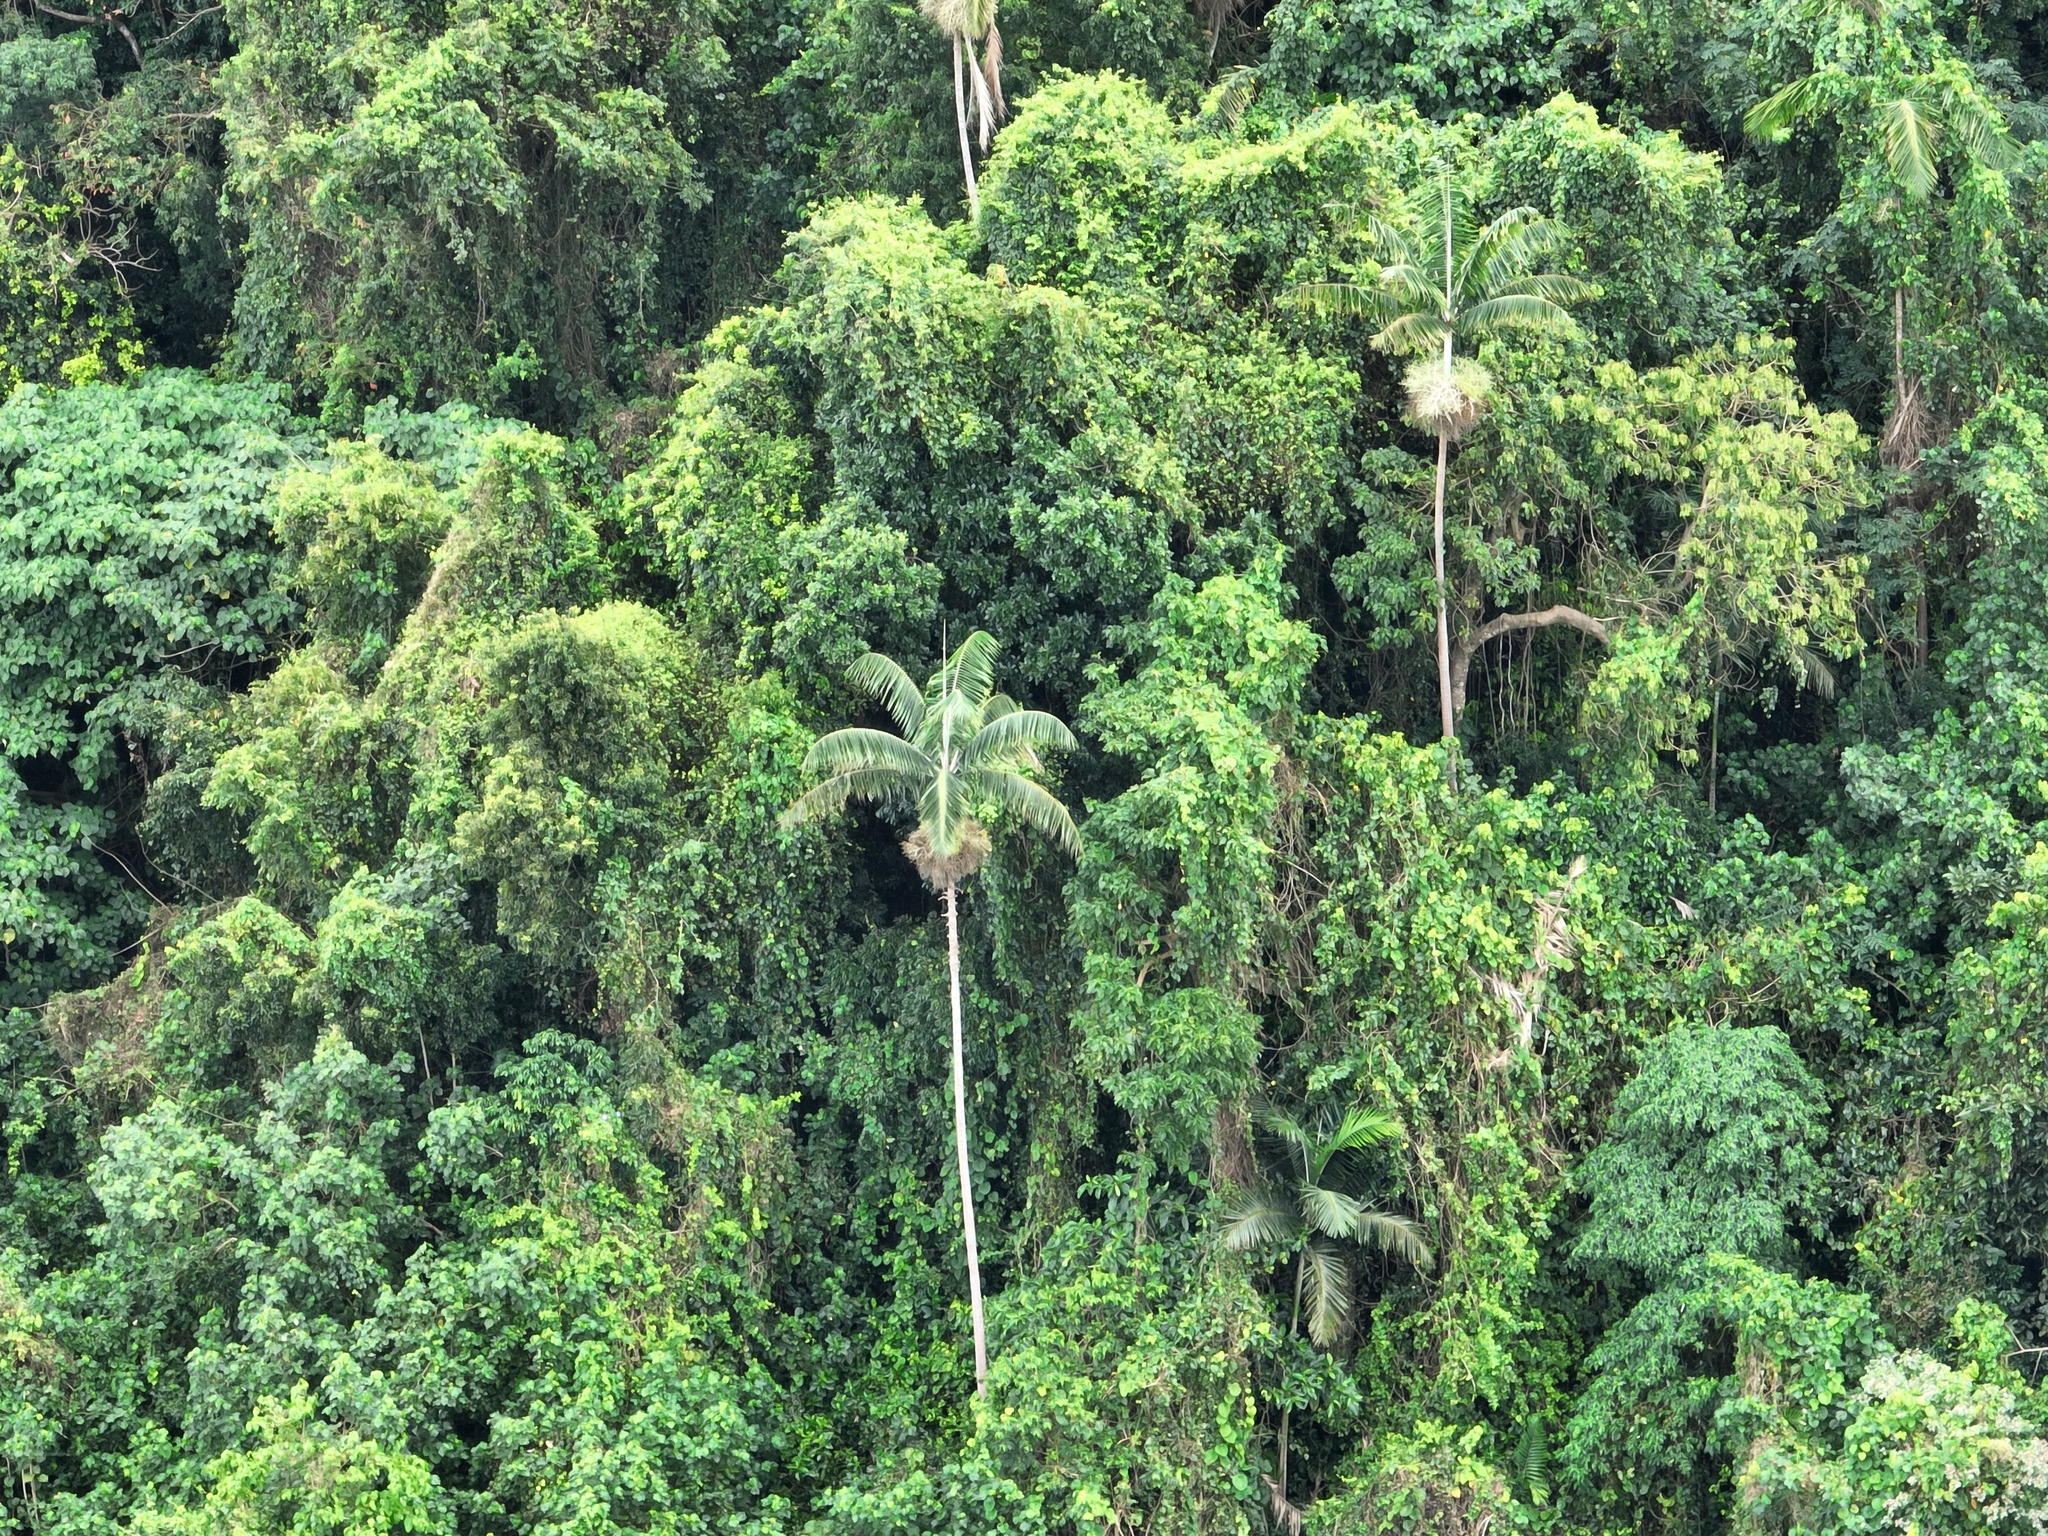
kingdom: Plantae
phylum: Tracheophyta
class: Liliopsida
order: Arecales
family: Arecaceae
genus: Clinostigma
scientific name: Clinostigma harlandii
